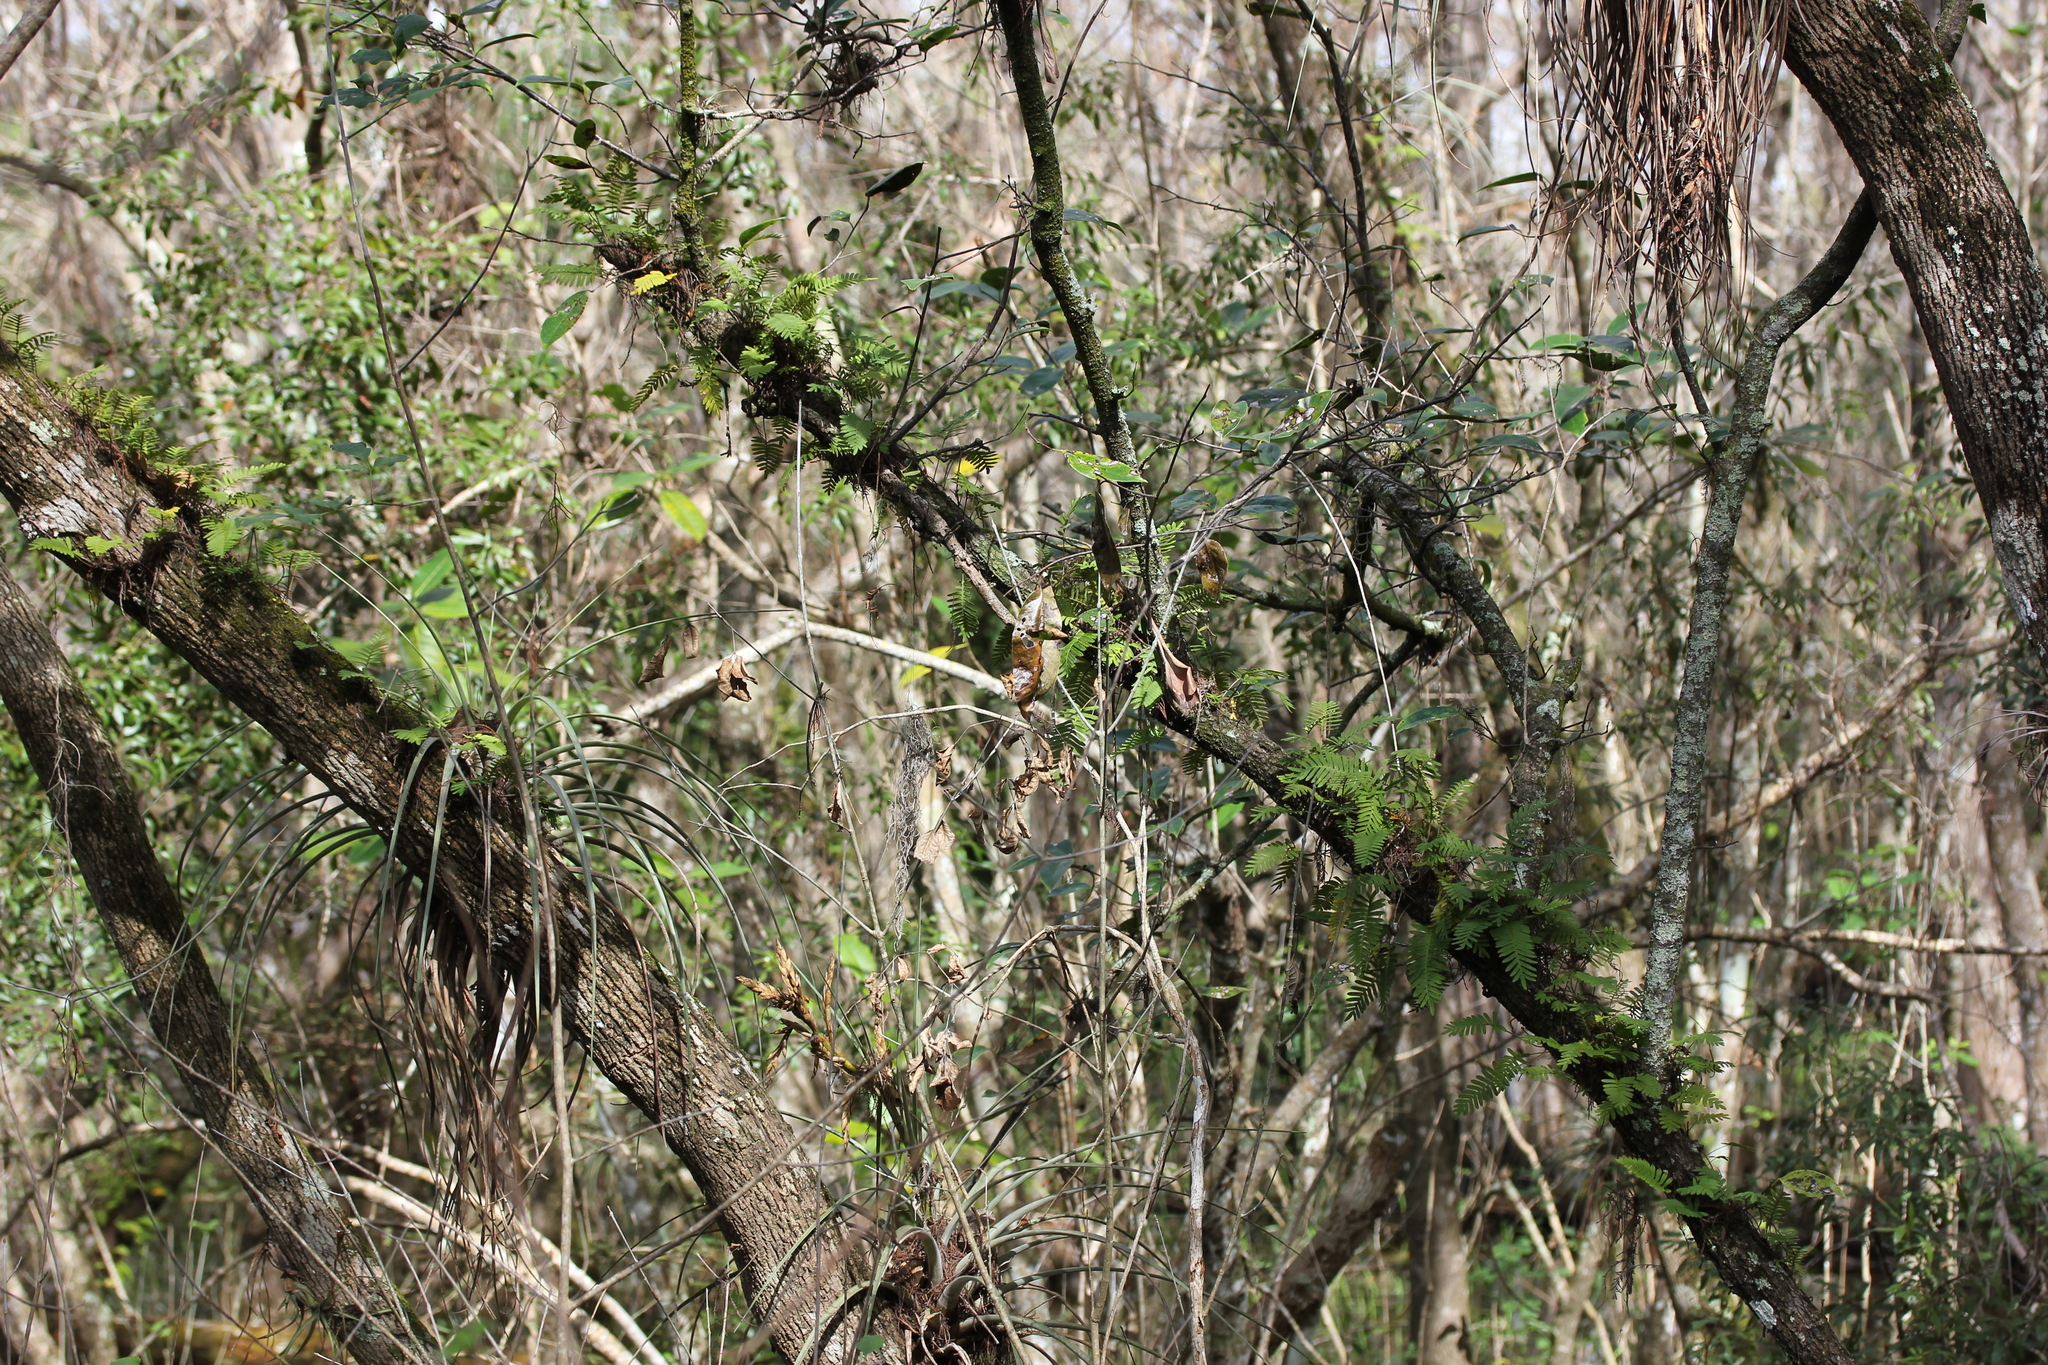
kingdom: Plantae
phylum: Tracheophyta
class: Polypodiopsida
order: Polypodiales
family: Polypodiaceae
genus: Pleopeltis
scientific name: Pleopeltis michauxiana
